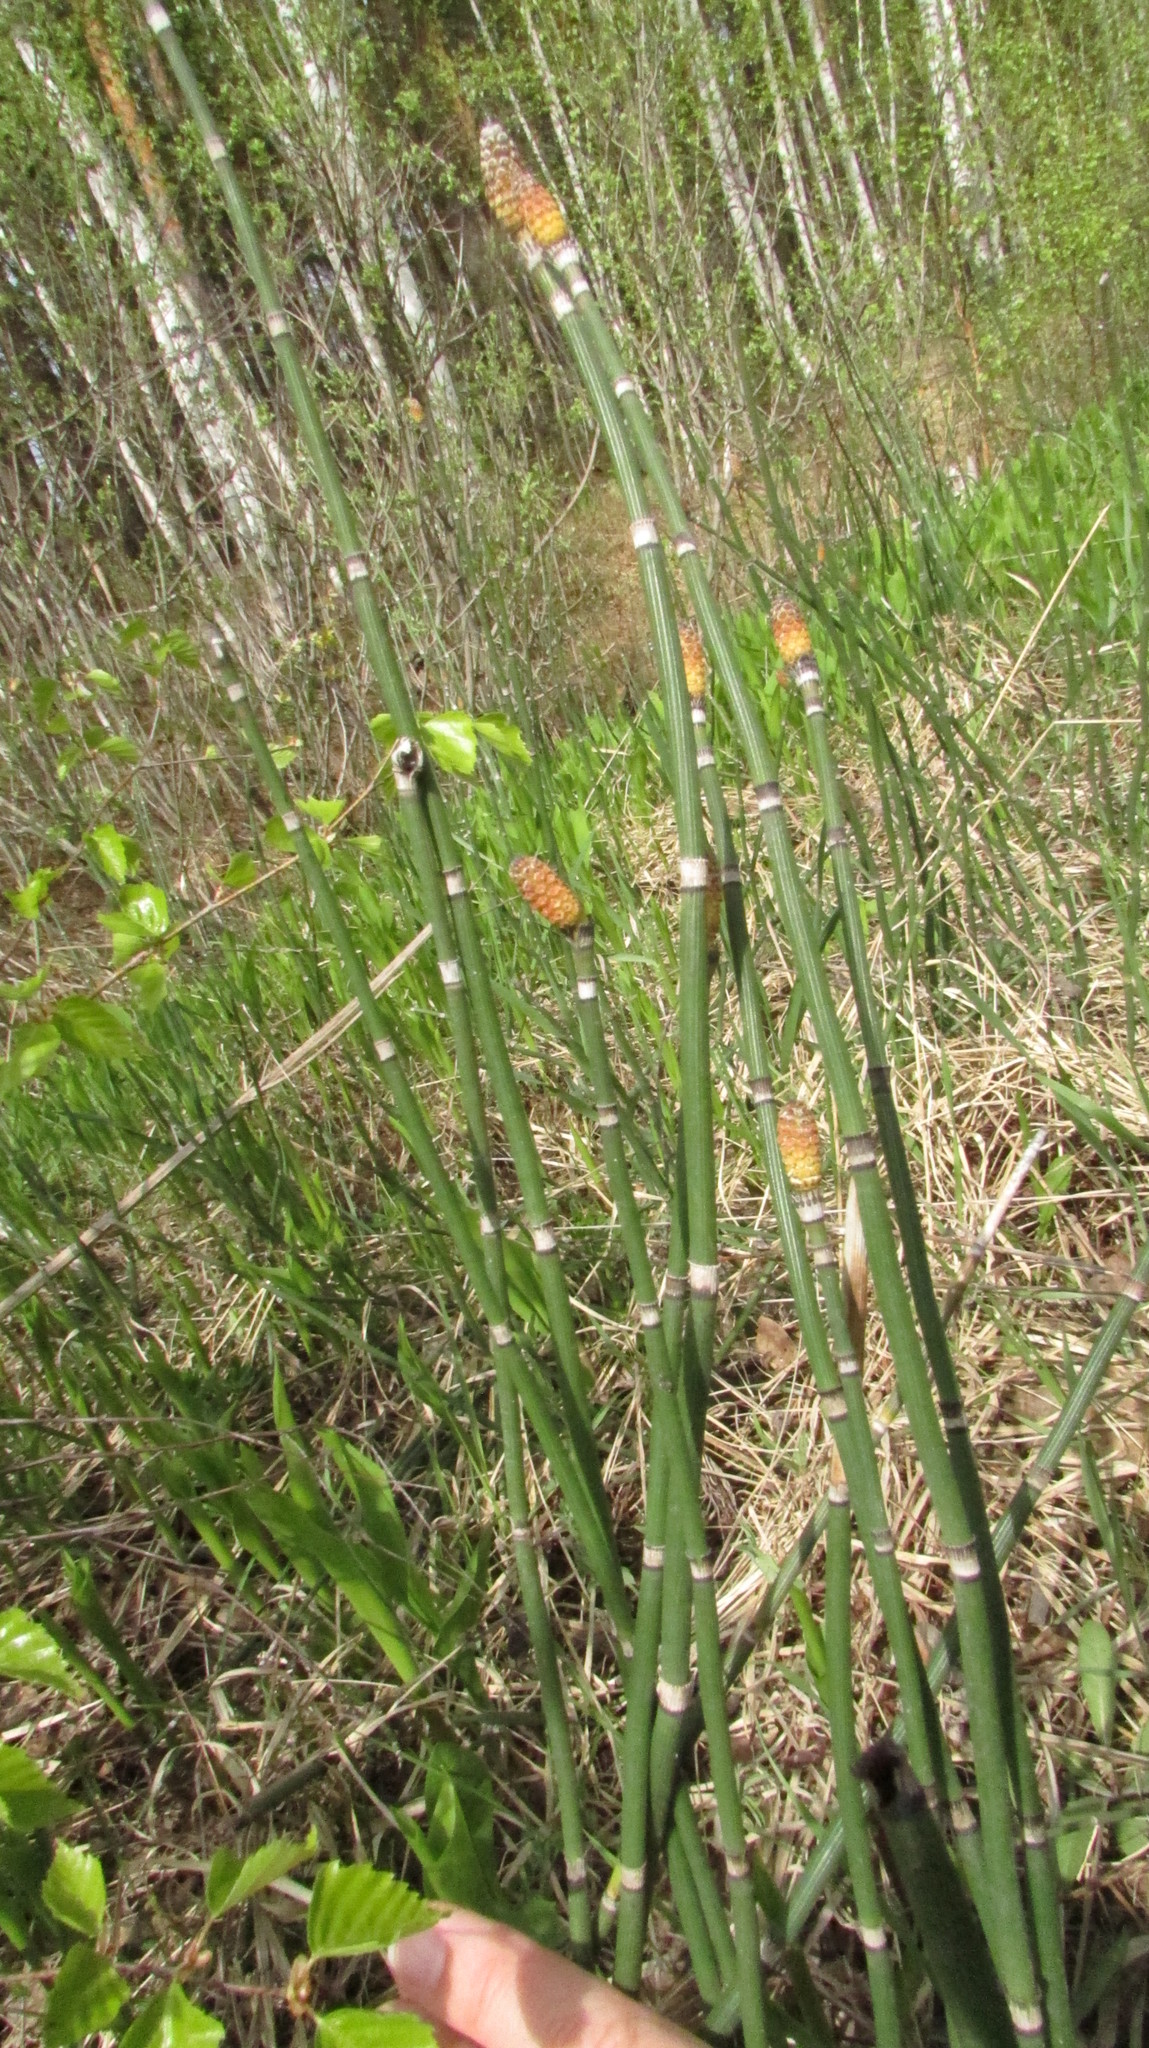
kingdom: Plantae
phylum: Tracheophyta
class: Polypodiopsida
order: Equisetales
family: Equisetaceae
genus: Equisetum
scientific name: Equisetum hyemale
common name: Rough horsetail
